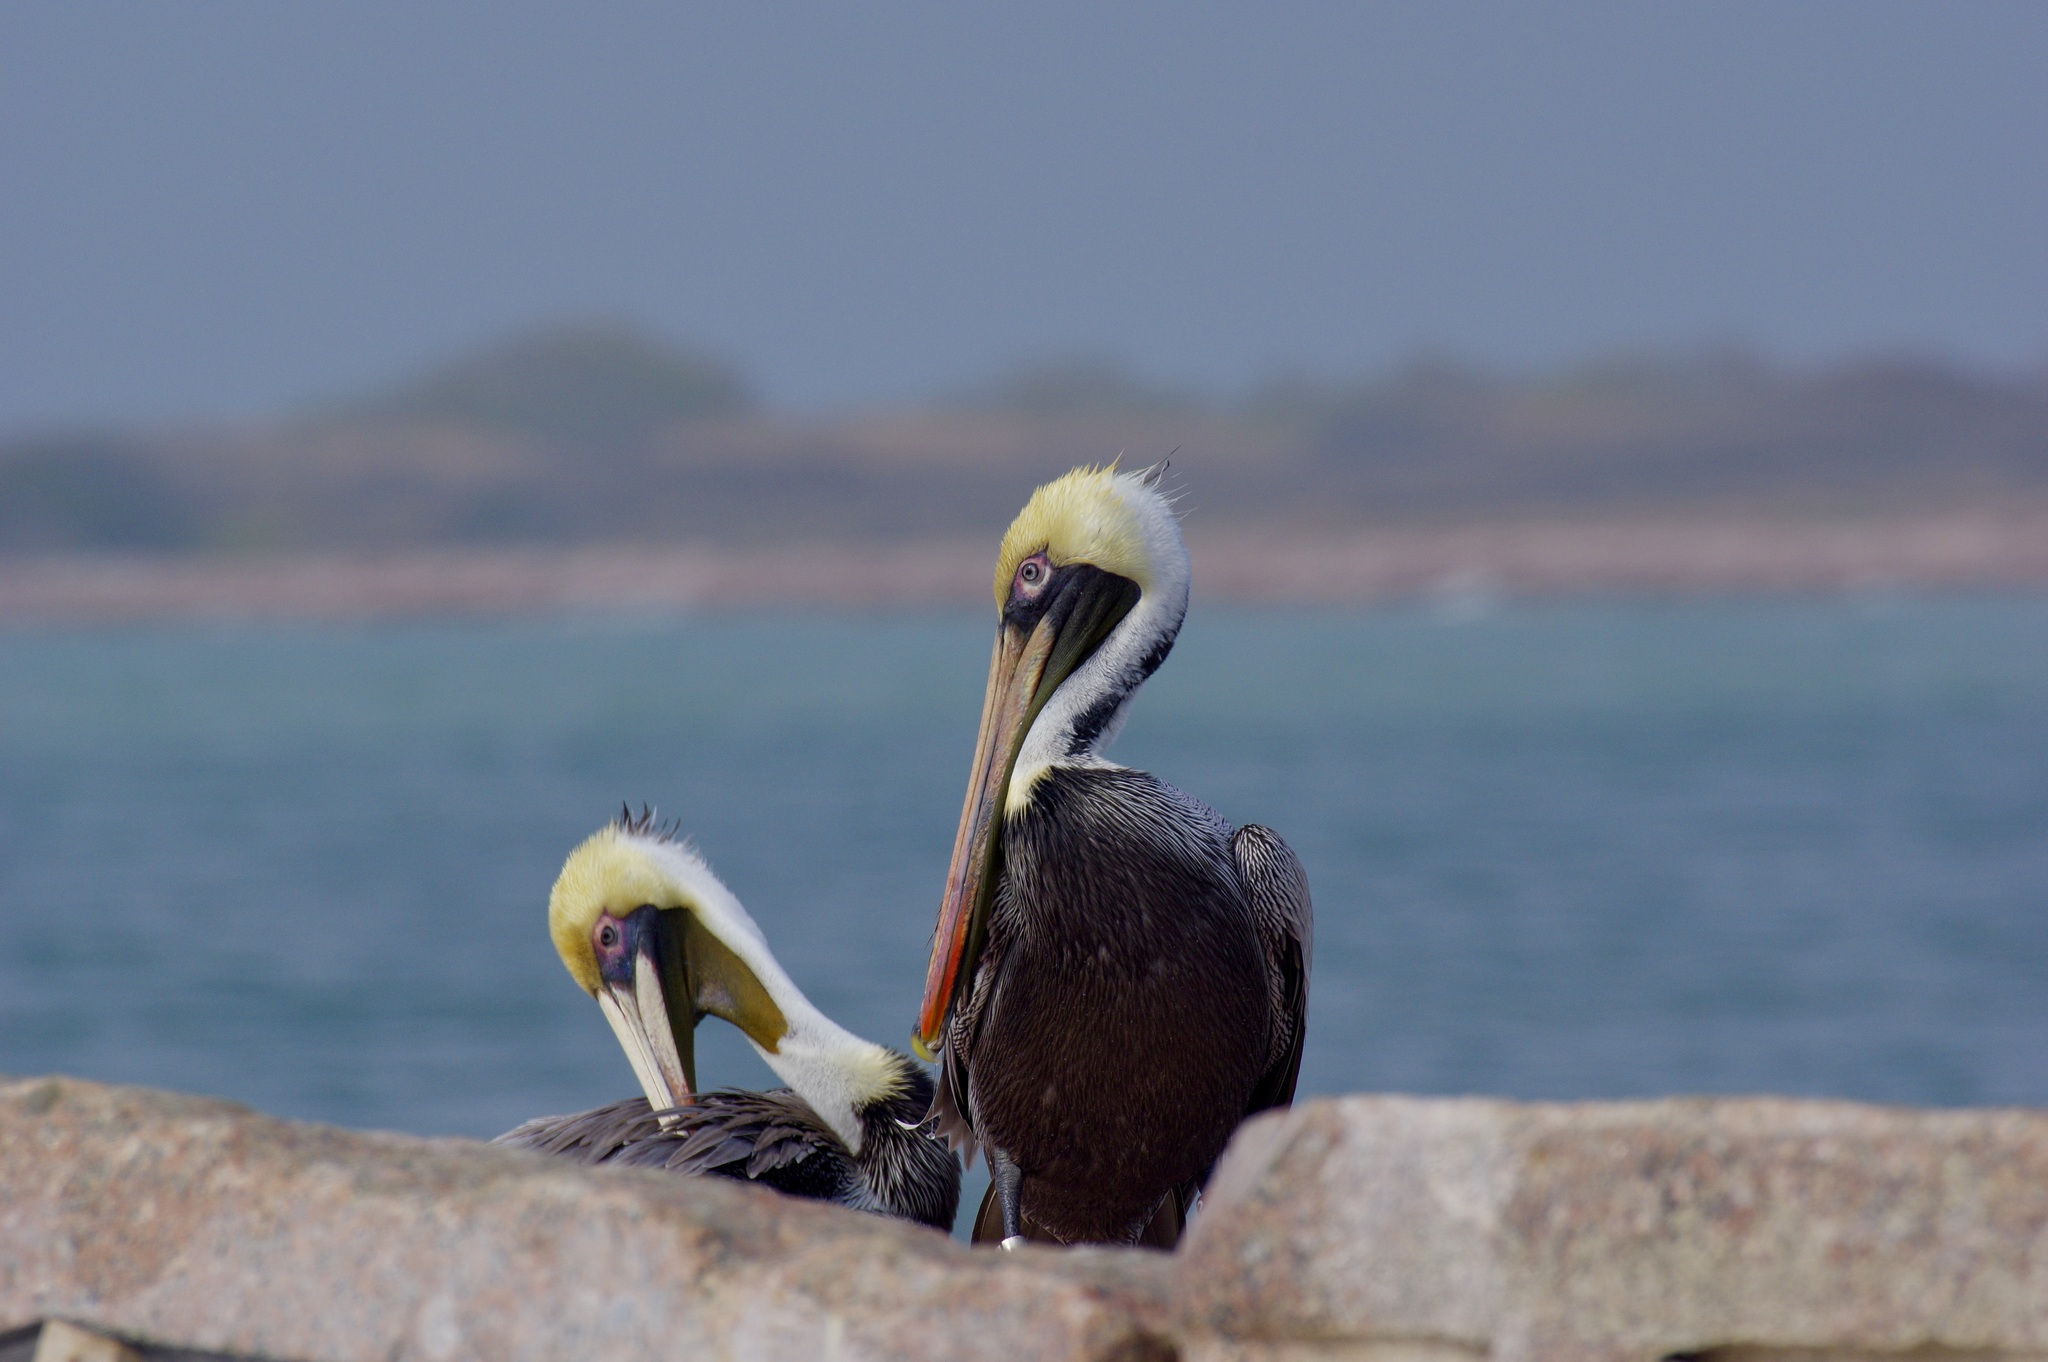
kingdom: Animalia
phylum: Chordata
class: Aves
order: Pelecaniformes
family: Pelecanidae
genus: Pelecanus
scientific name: Pelecanus occidentalis
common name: Brown pelican
